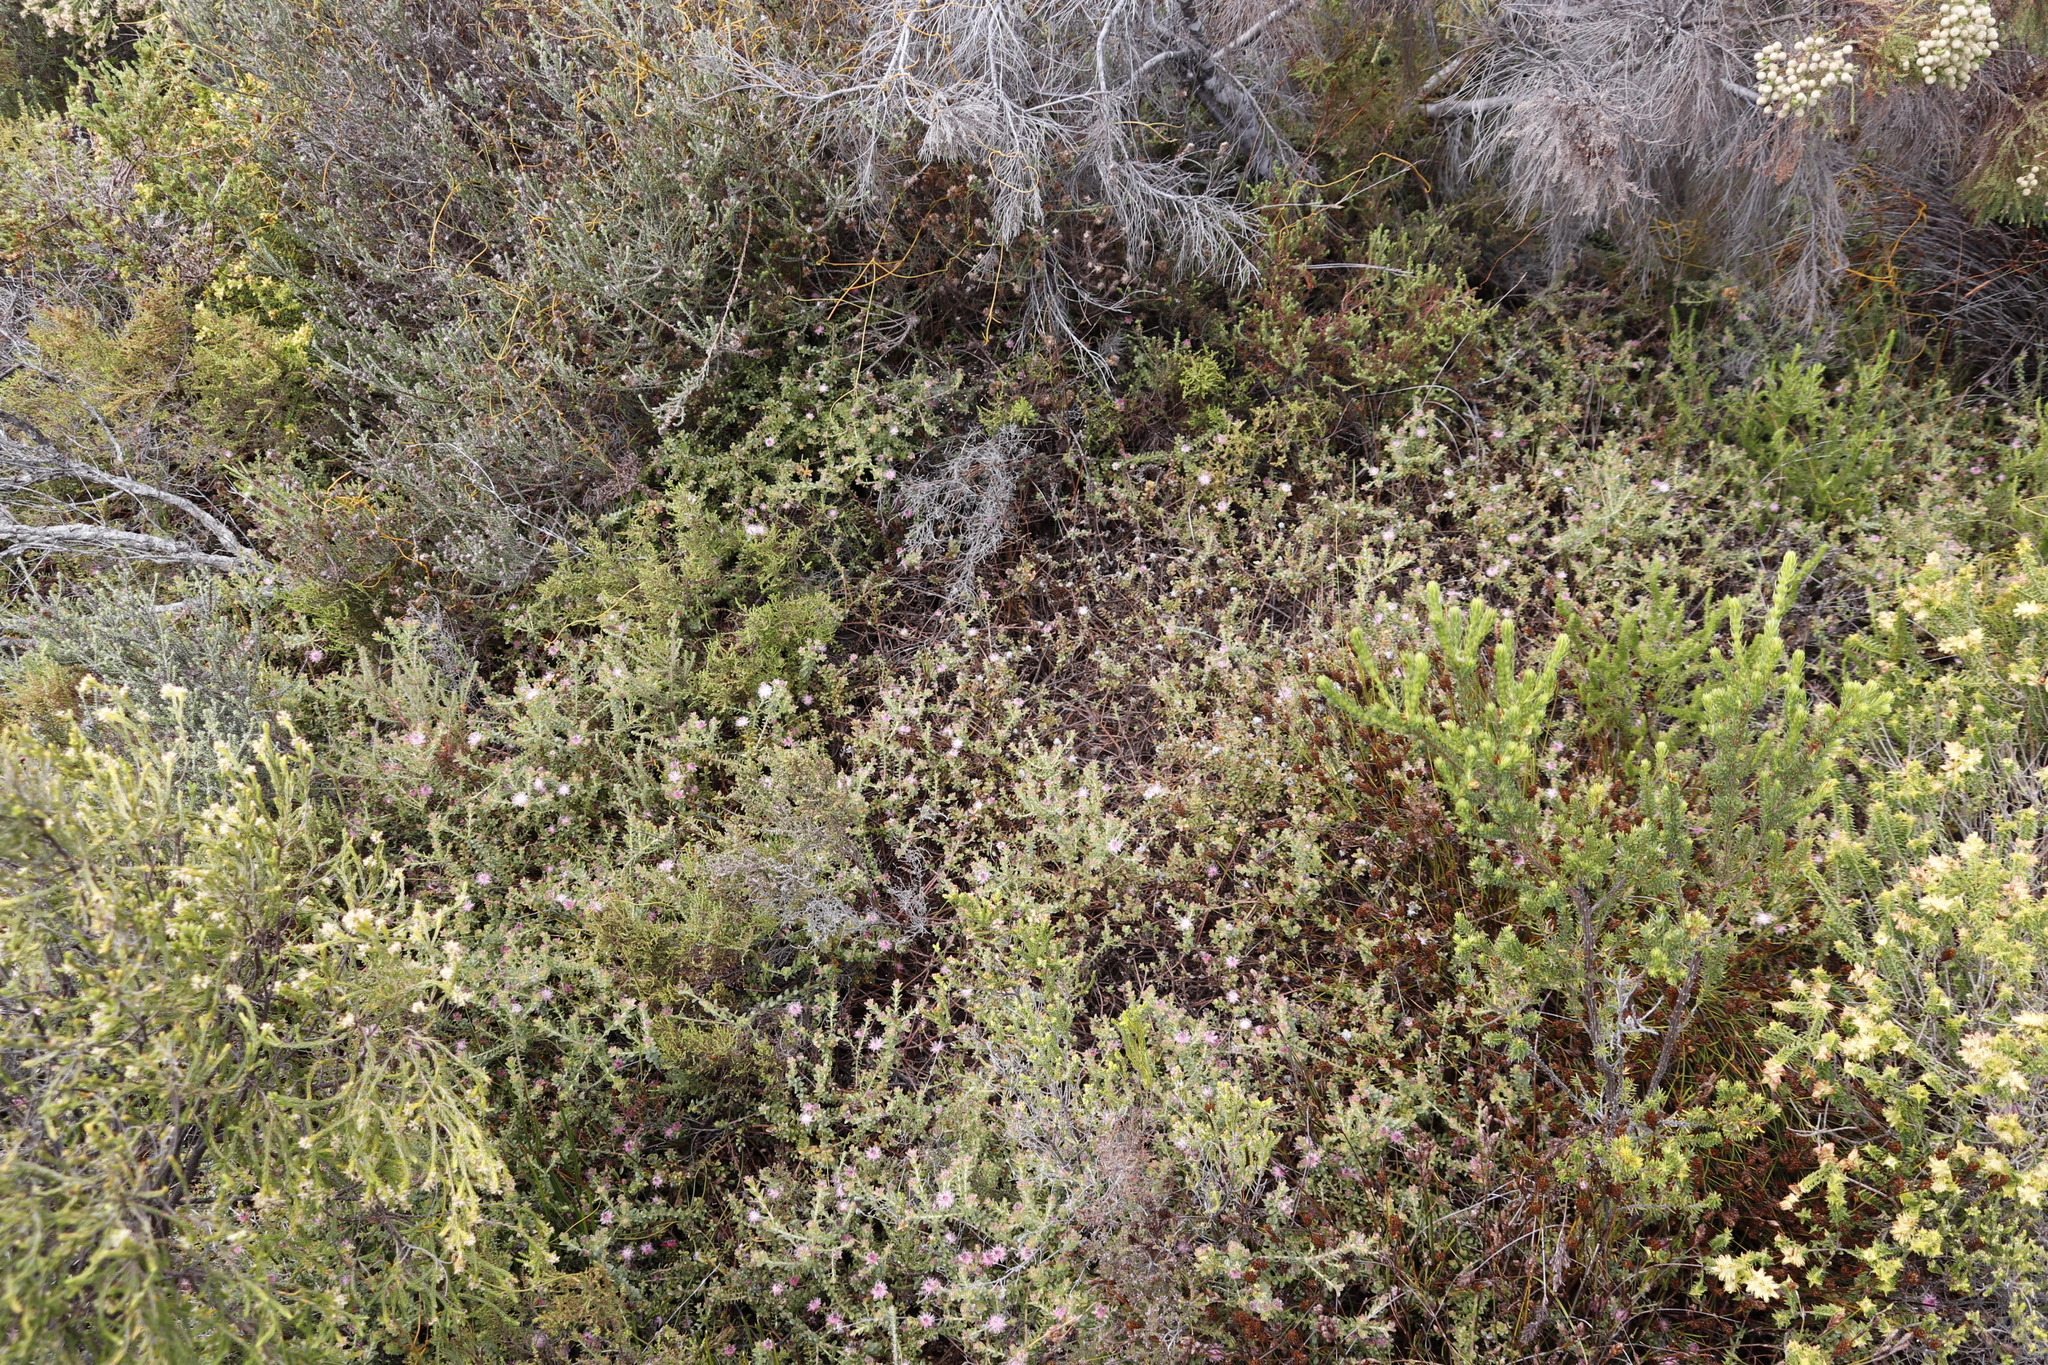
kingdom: Plantae
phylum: Tracheophyta
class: Magnoliopsida
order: Proteales
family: Proteaceae
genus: Diastella
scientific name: Diastella divaricata
